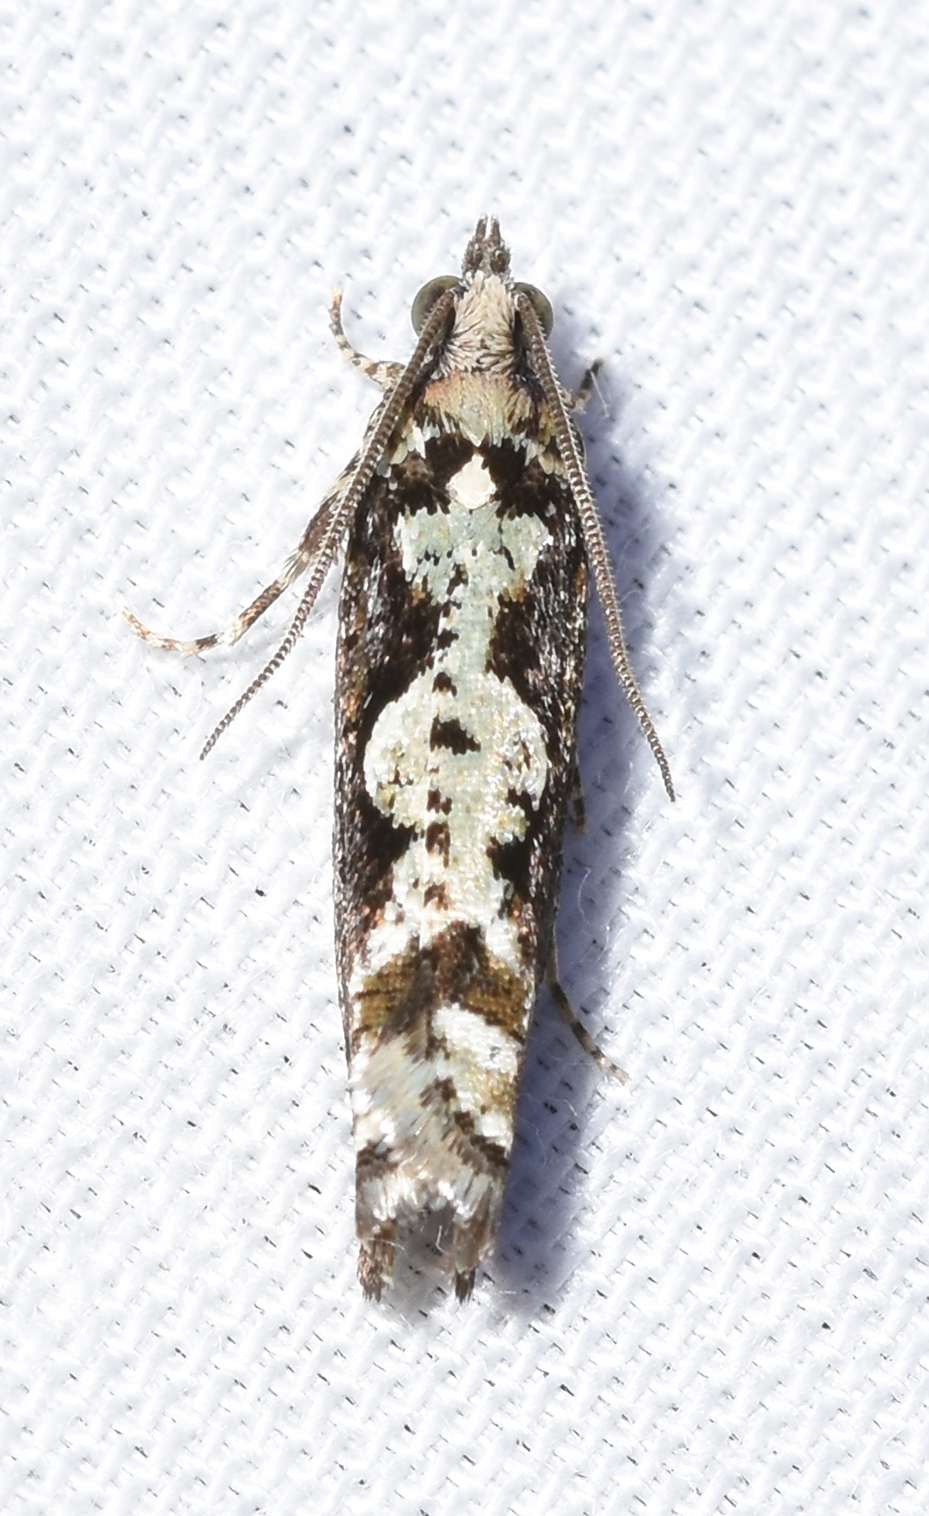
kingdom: Animalia
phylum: Arthropoda
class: Insecta
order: Lepidoptera
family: Tortricidae
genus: Chimoptesis
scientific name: Chimoptesis pennsylvaniana
